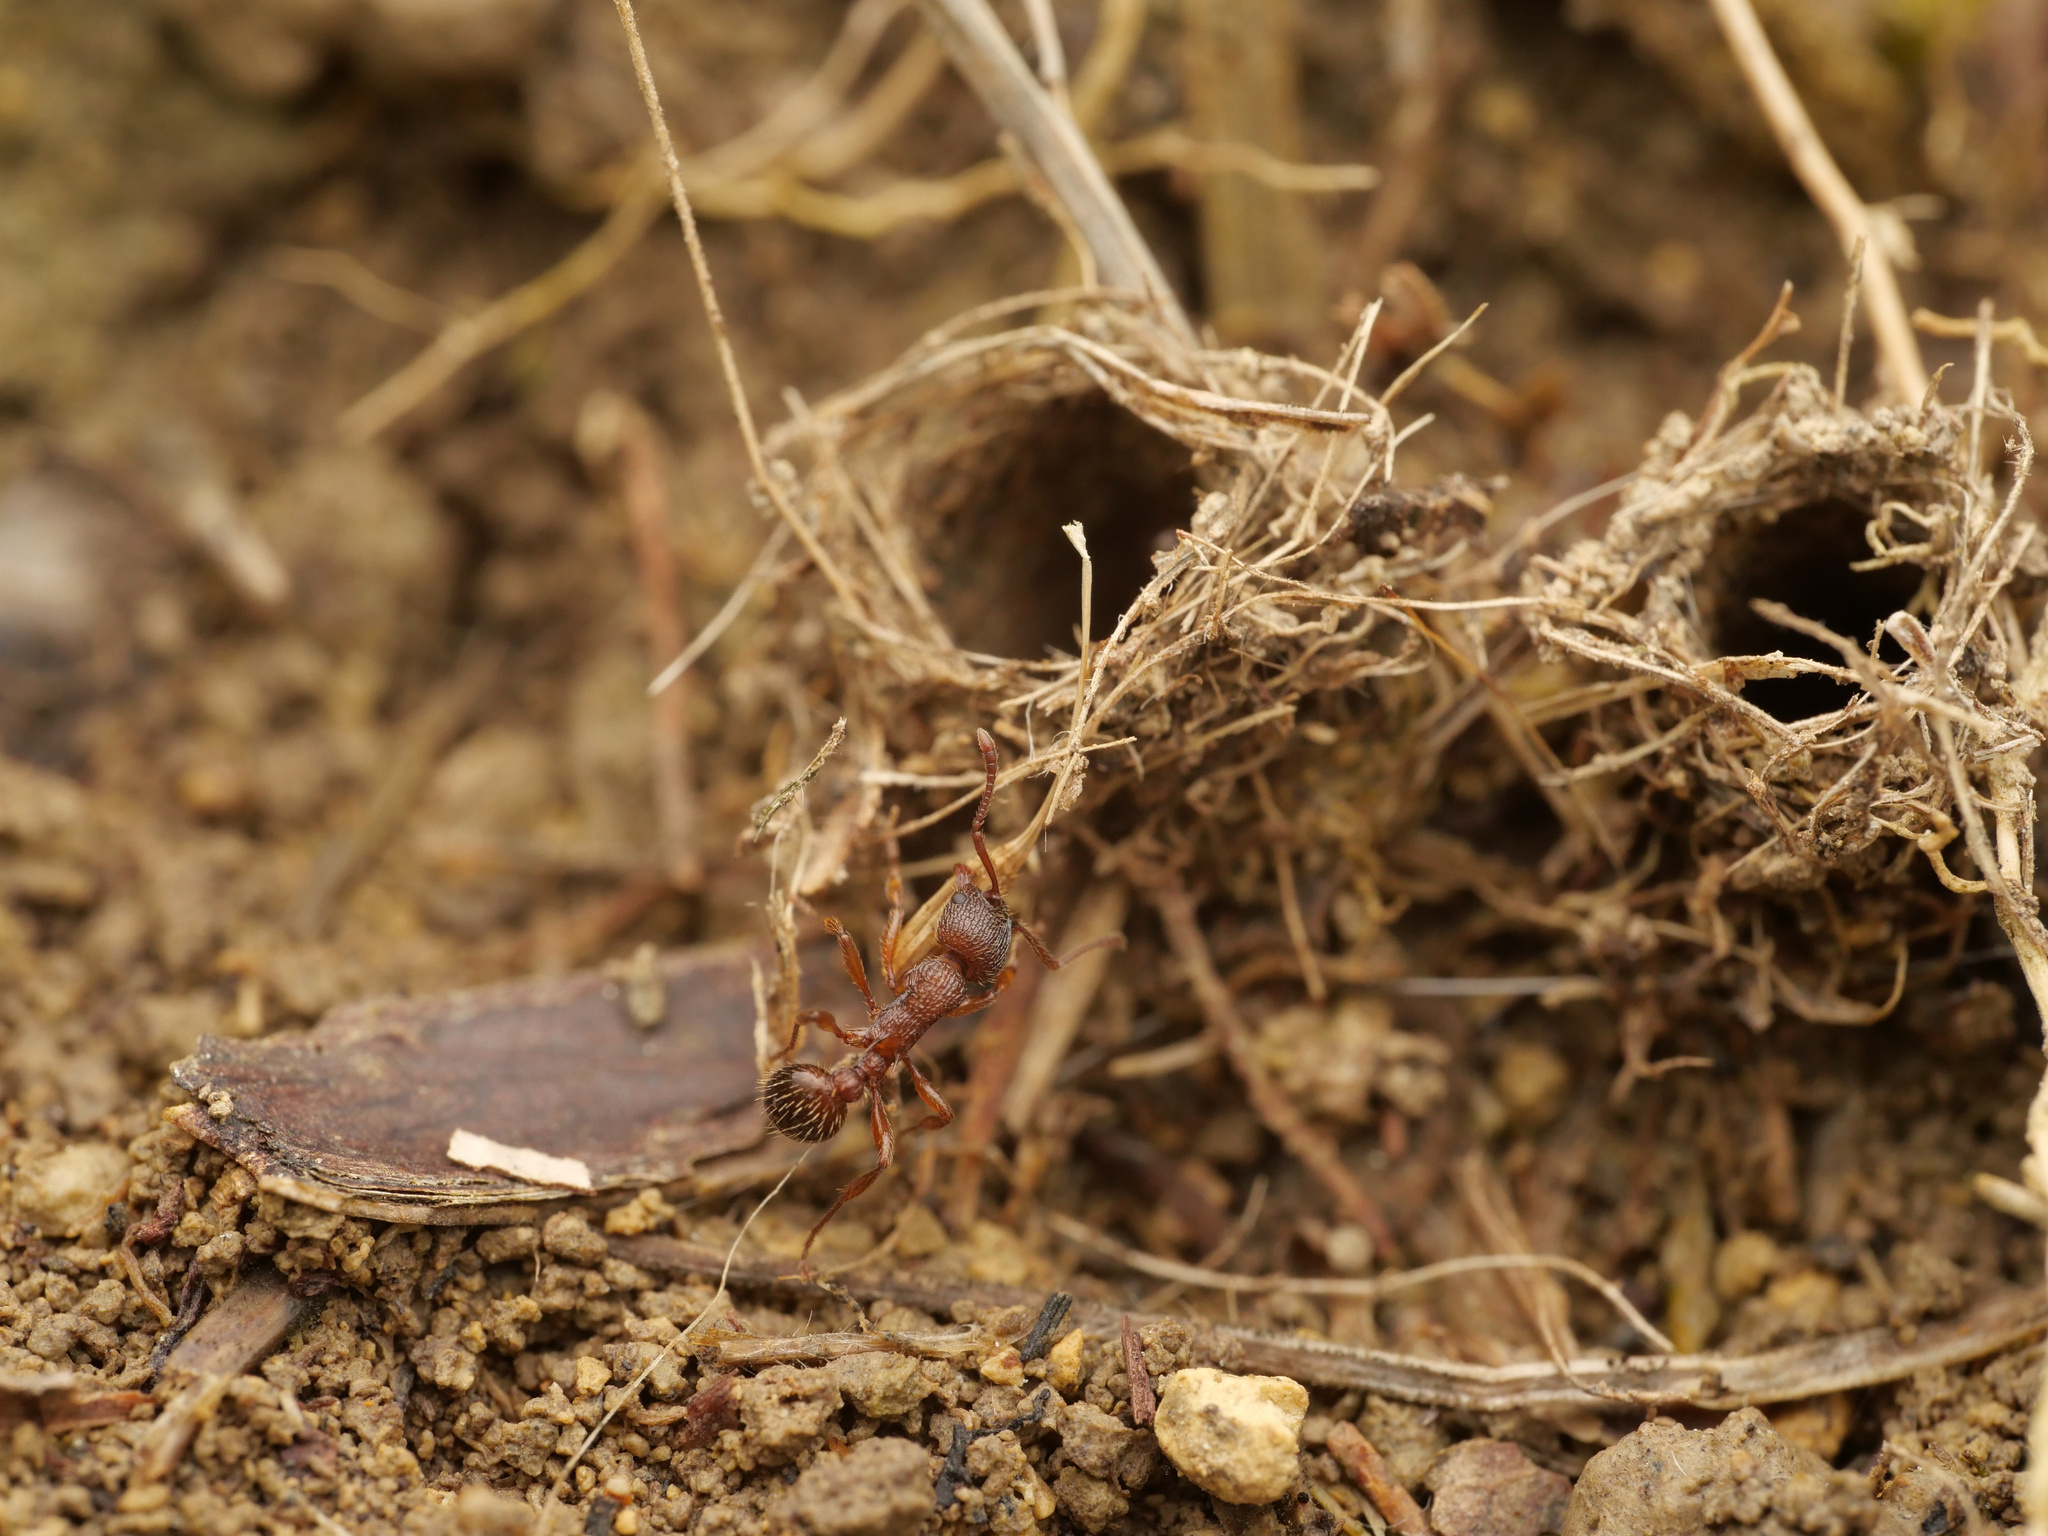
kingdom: Animalia
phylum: Arthropoda
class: Insecta
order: Hymenoptera
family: Formicidae
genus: Myrmica
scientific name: Myrmica schencki
